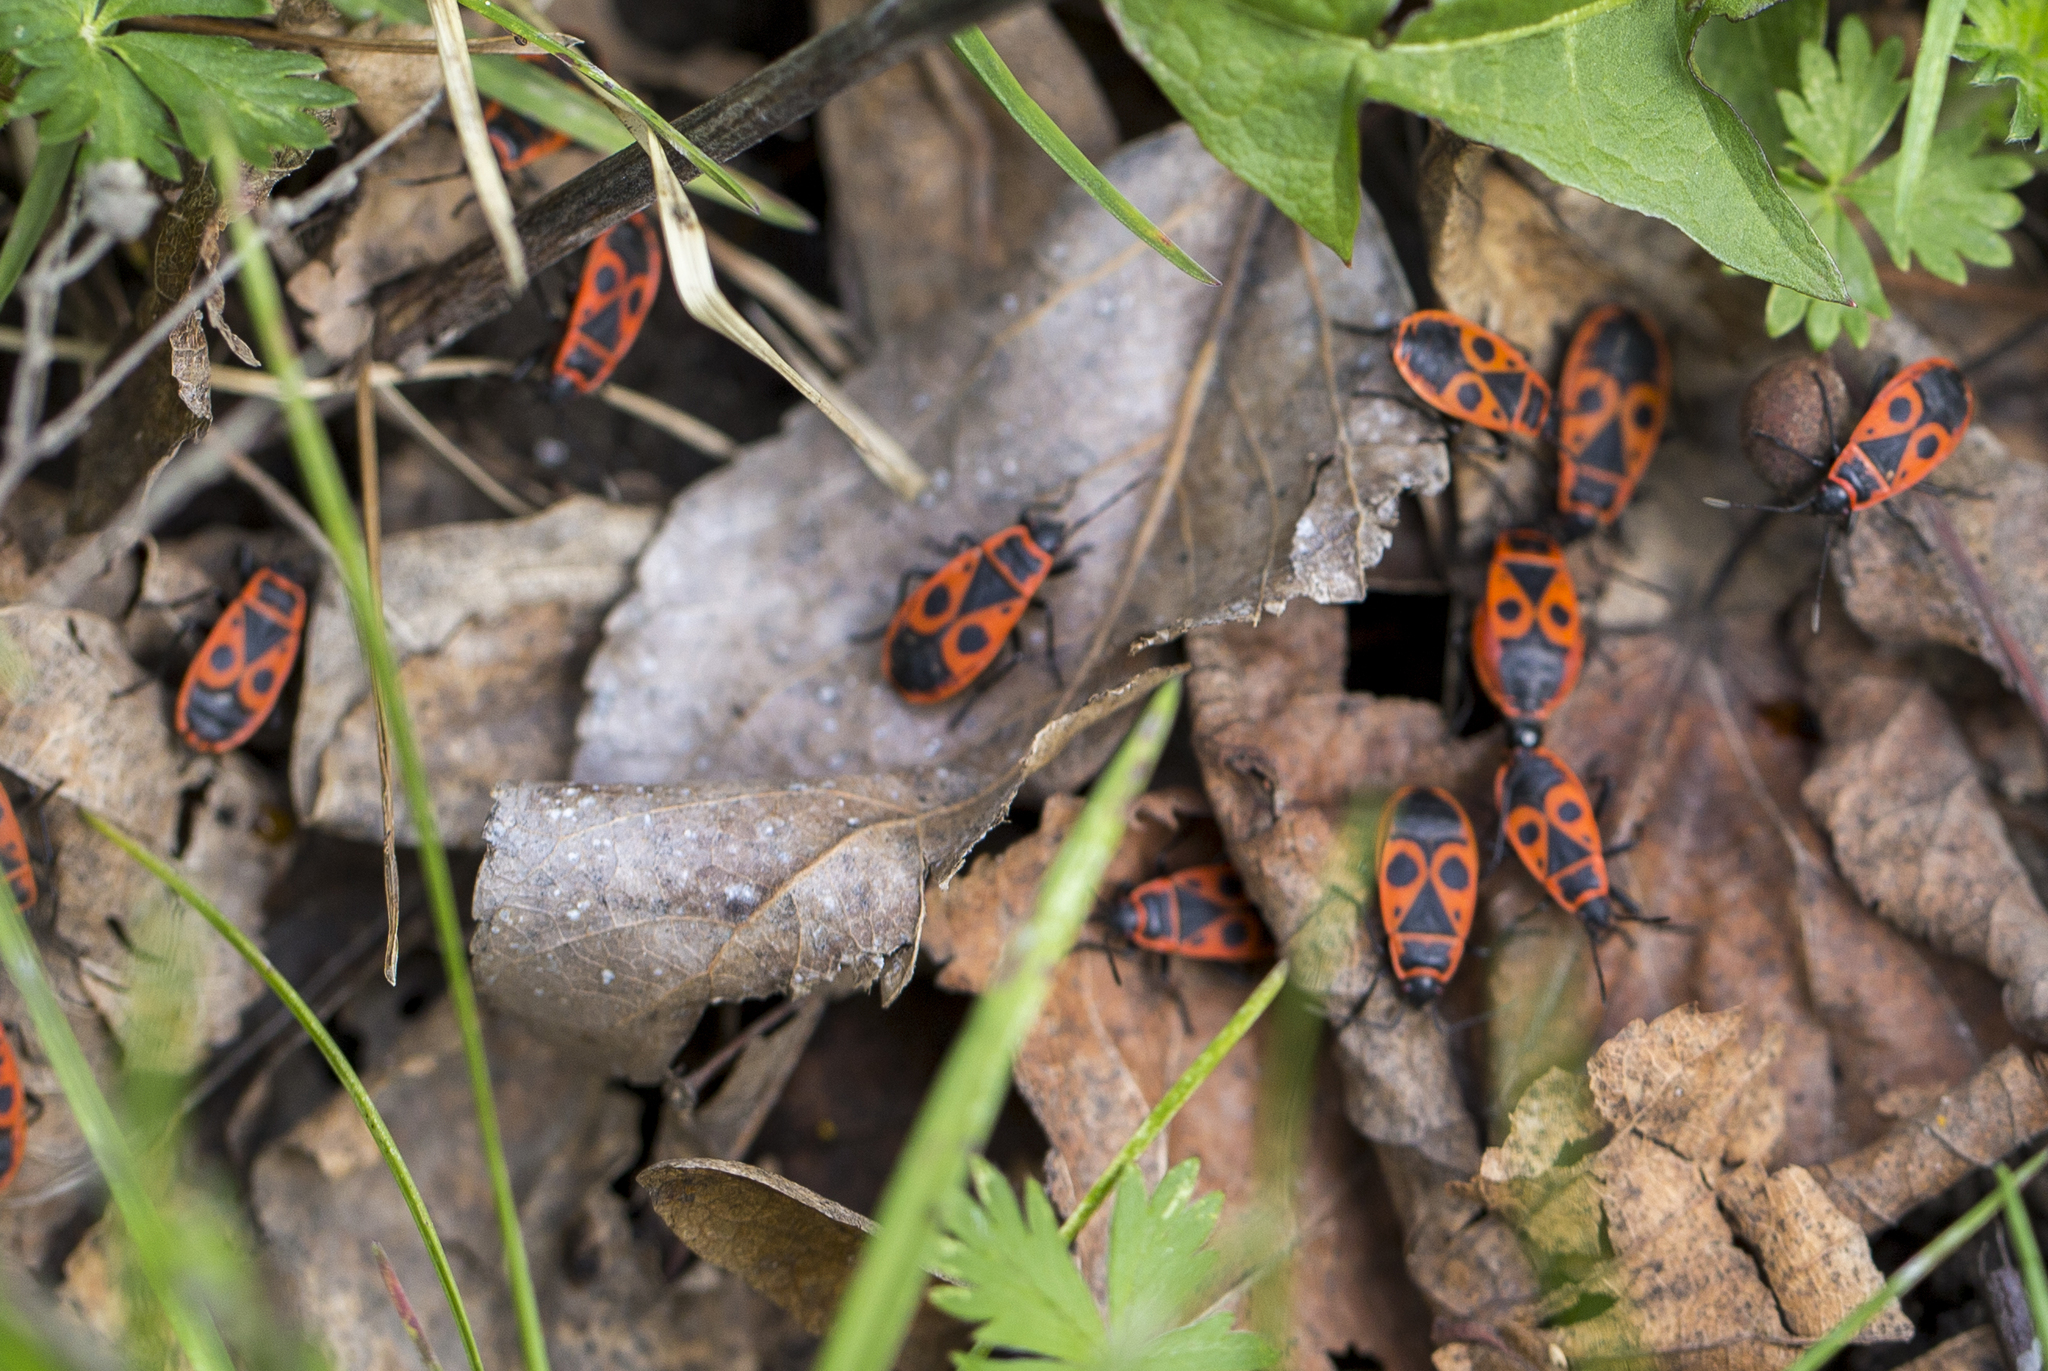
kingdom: Animalia
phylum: Arthropoda
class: Insecta
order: Hemiptera
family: Pyrrhocoridae
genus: Pyrrhocoris
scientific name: Pyrrhocoris apterus
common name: Firebug
